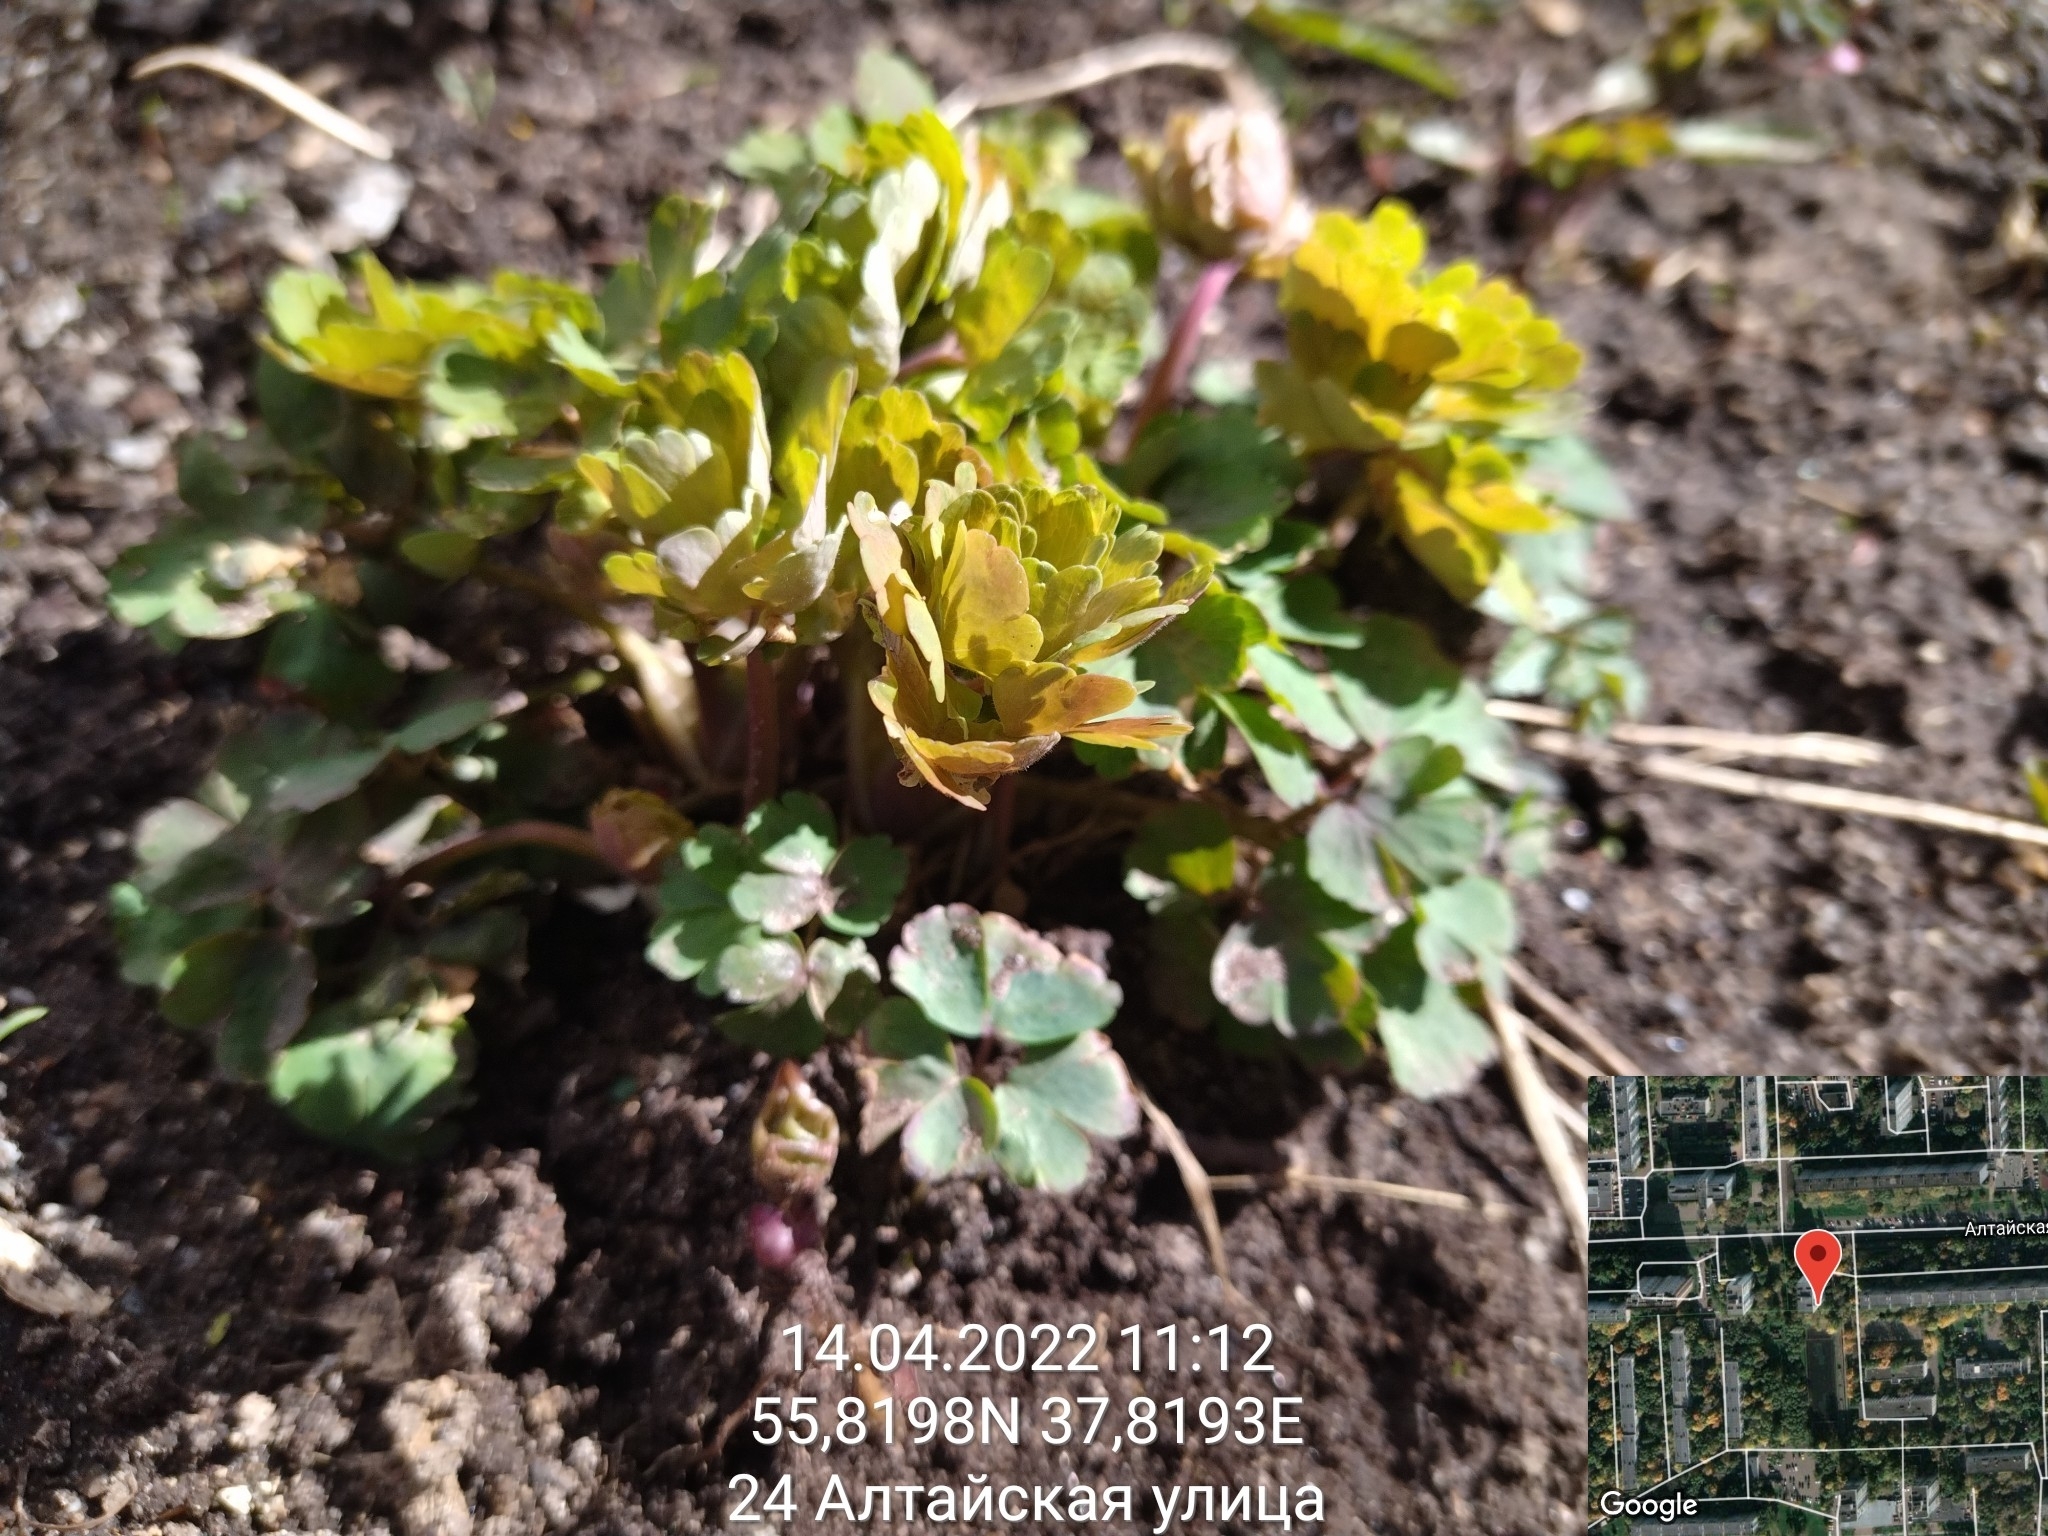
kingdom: Plantae
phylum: Tracheophyta
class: Magnoliopsida
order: Ranunculales
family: Ranunculaceae
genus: Aquilegia
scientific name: Aquilegia vulgaris
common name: Columbine
